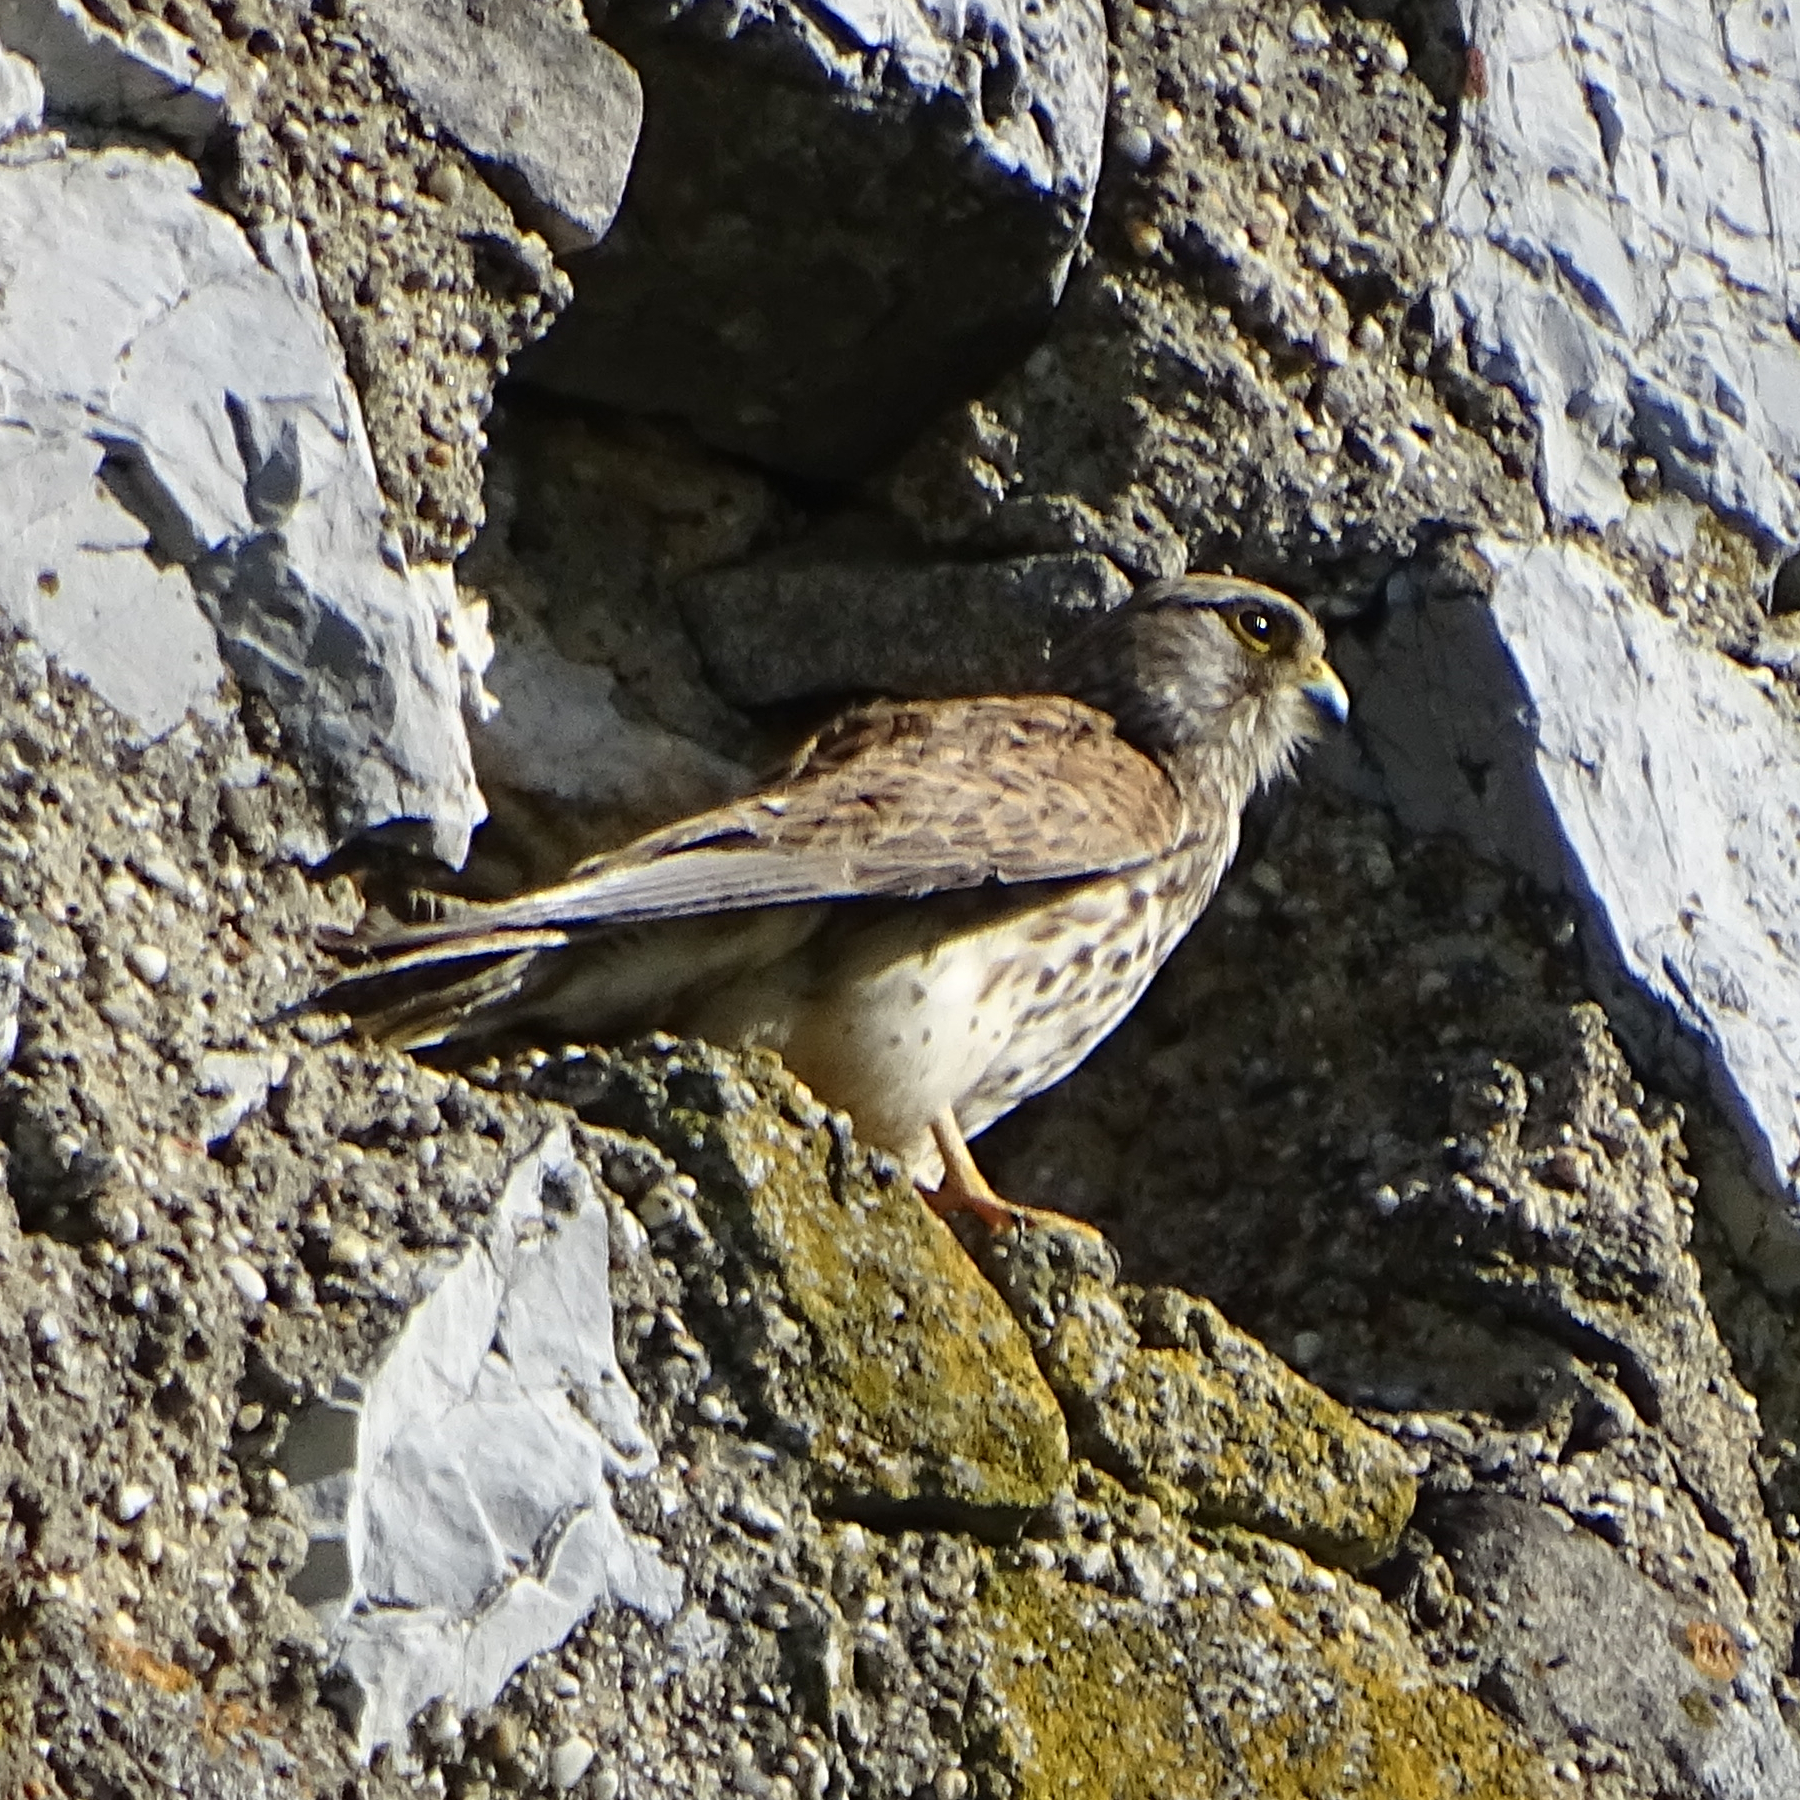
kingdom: Animalia
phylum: Chordata
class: Aves
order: Falconiformes
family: Falconidae
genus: Falco
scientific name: Falco tinnunculus
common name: Common kestrel
